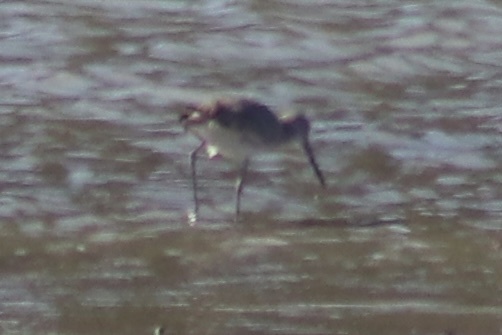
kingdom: Animalia
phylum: Chordata
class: Aves
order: Charadriiformes
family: Scolopacidae
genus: Tringa
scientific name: Tringa semipalmata
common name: Willet
